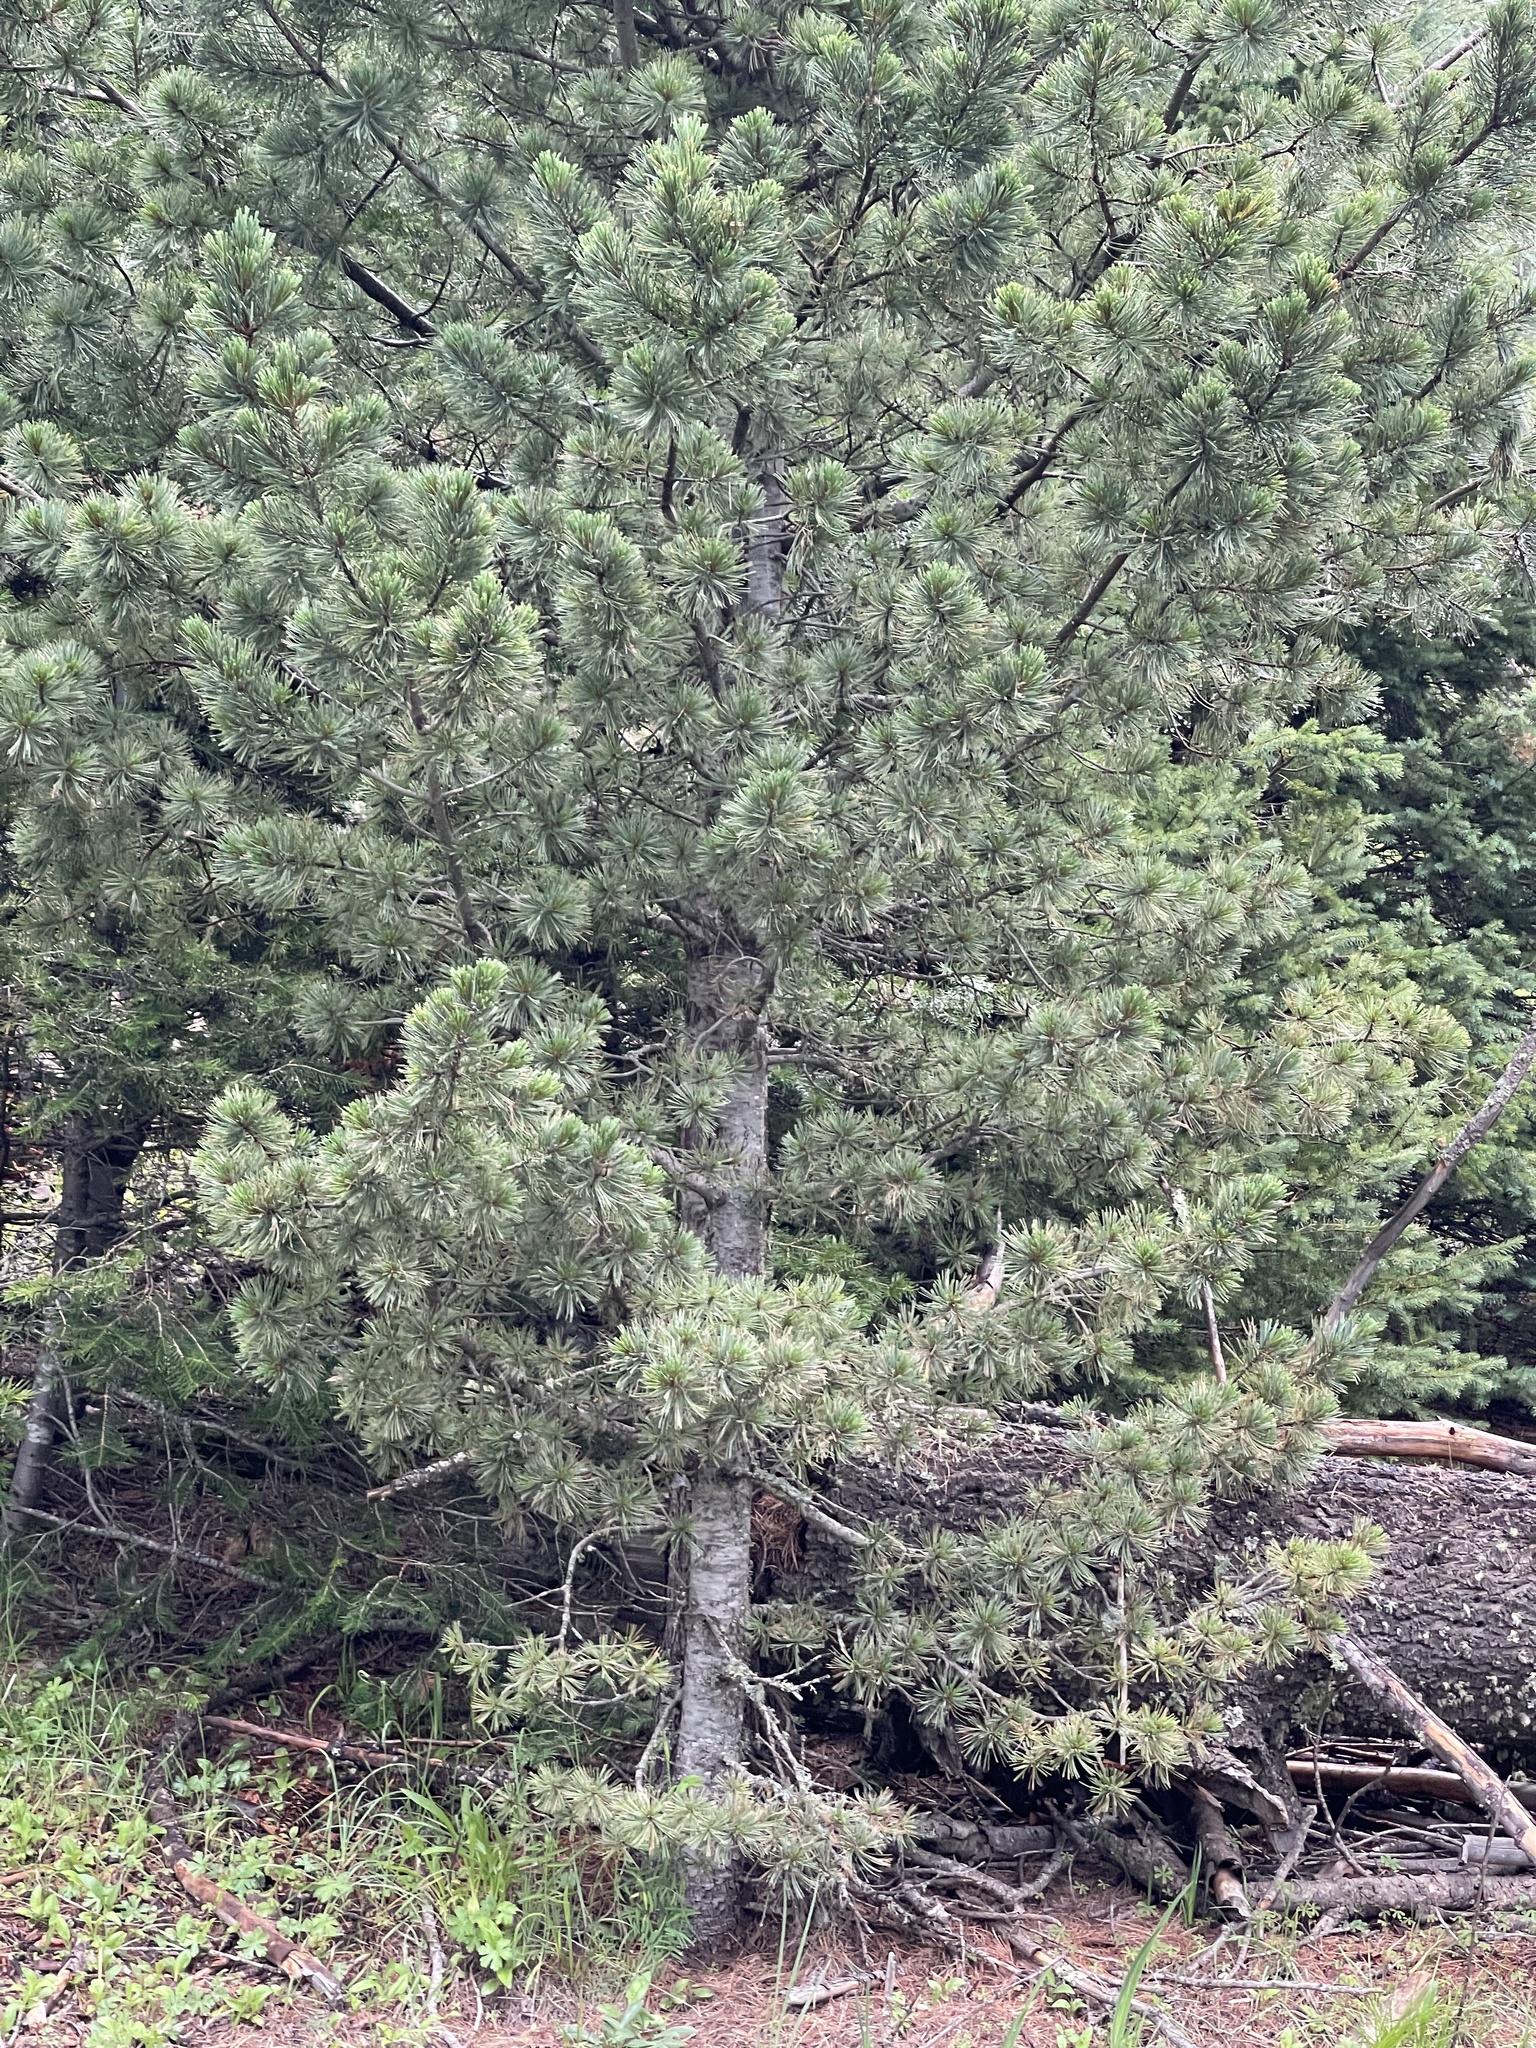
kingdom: Plantae
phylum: Tracheophyta
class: Pinopsida
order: Pinales
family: Pinaceae
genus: Pinus
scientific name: Pinus strobiformis
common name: Southwestern white pine
